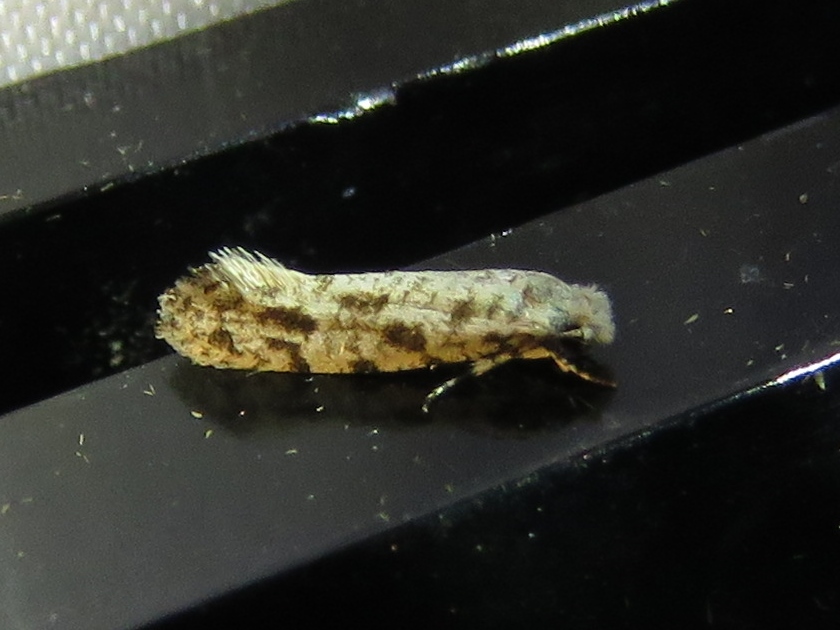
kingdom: Animalia
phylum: Arthropoda
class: Insecta
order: Lepidoptera
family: Meessiidae
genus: Diachorisia
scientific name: Diachorisia velatella
